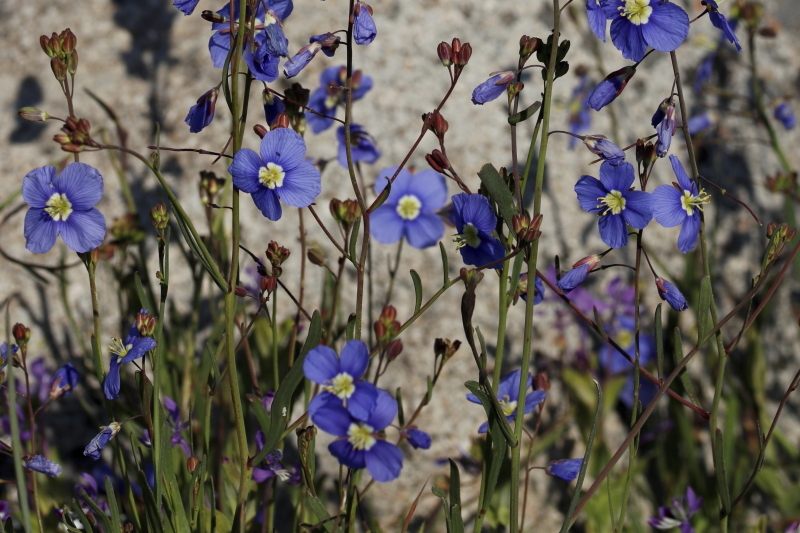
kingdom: Plantae
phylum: Tracheophyta
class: Magnoliopsida
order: Brassicales
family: Brassicaceae
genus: Heliophila
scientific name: Heliophila coronopifolia
